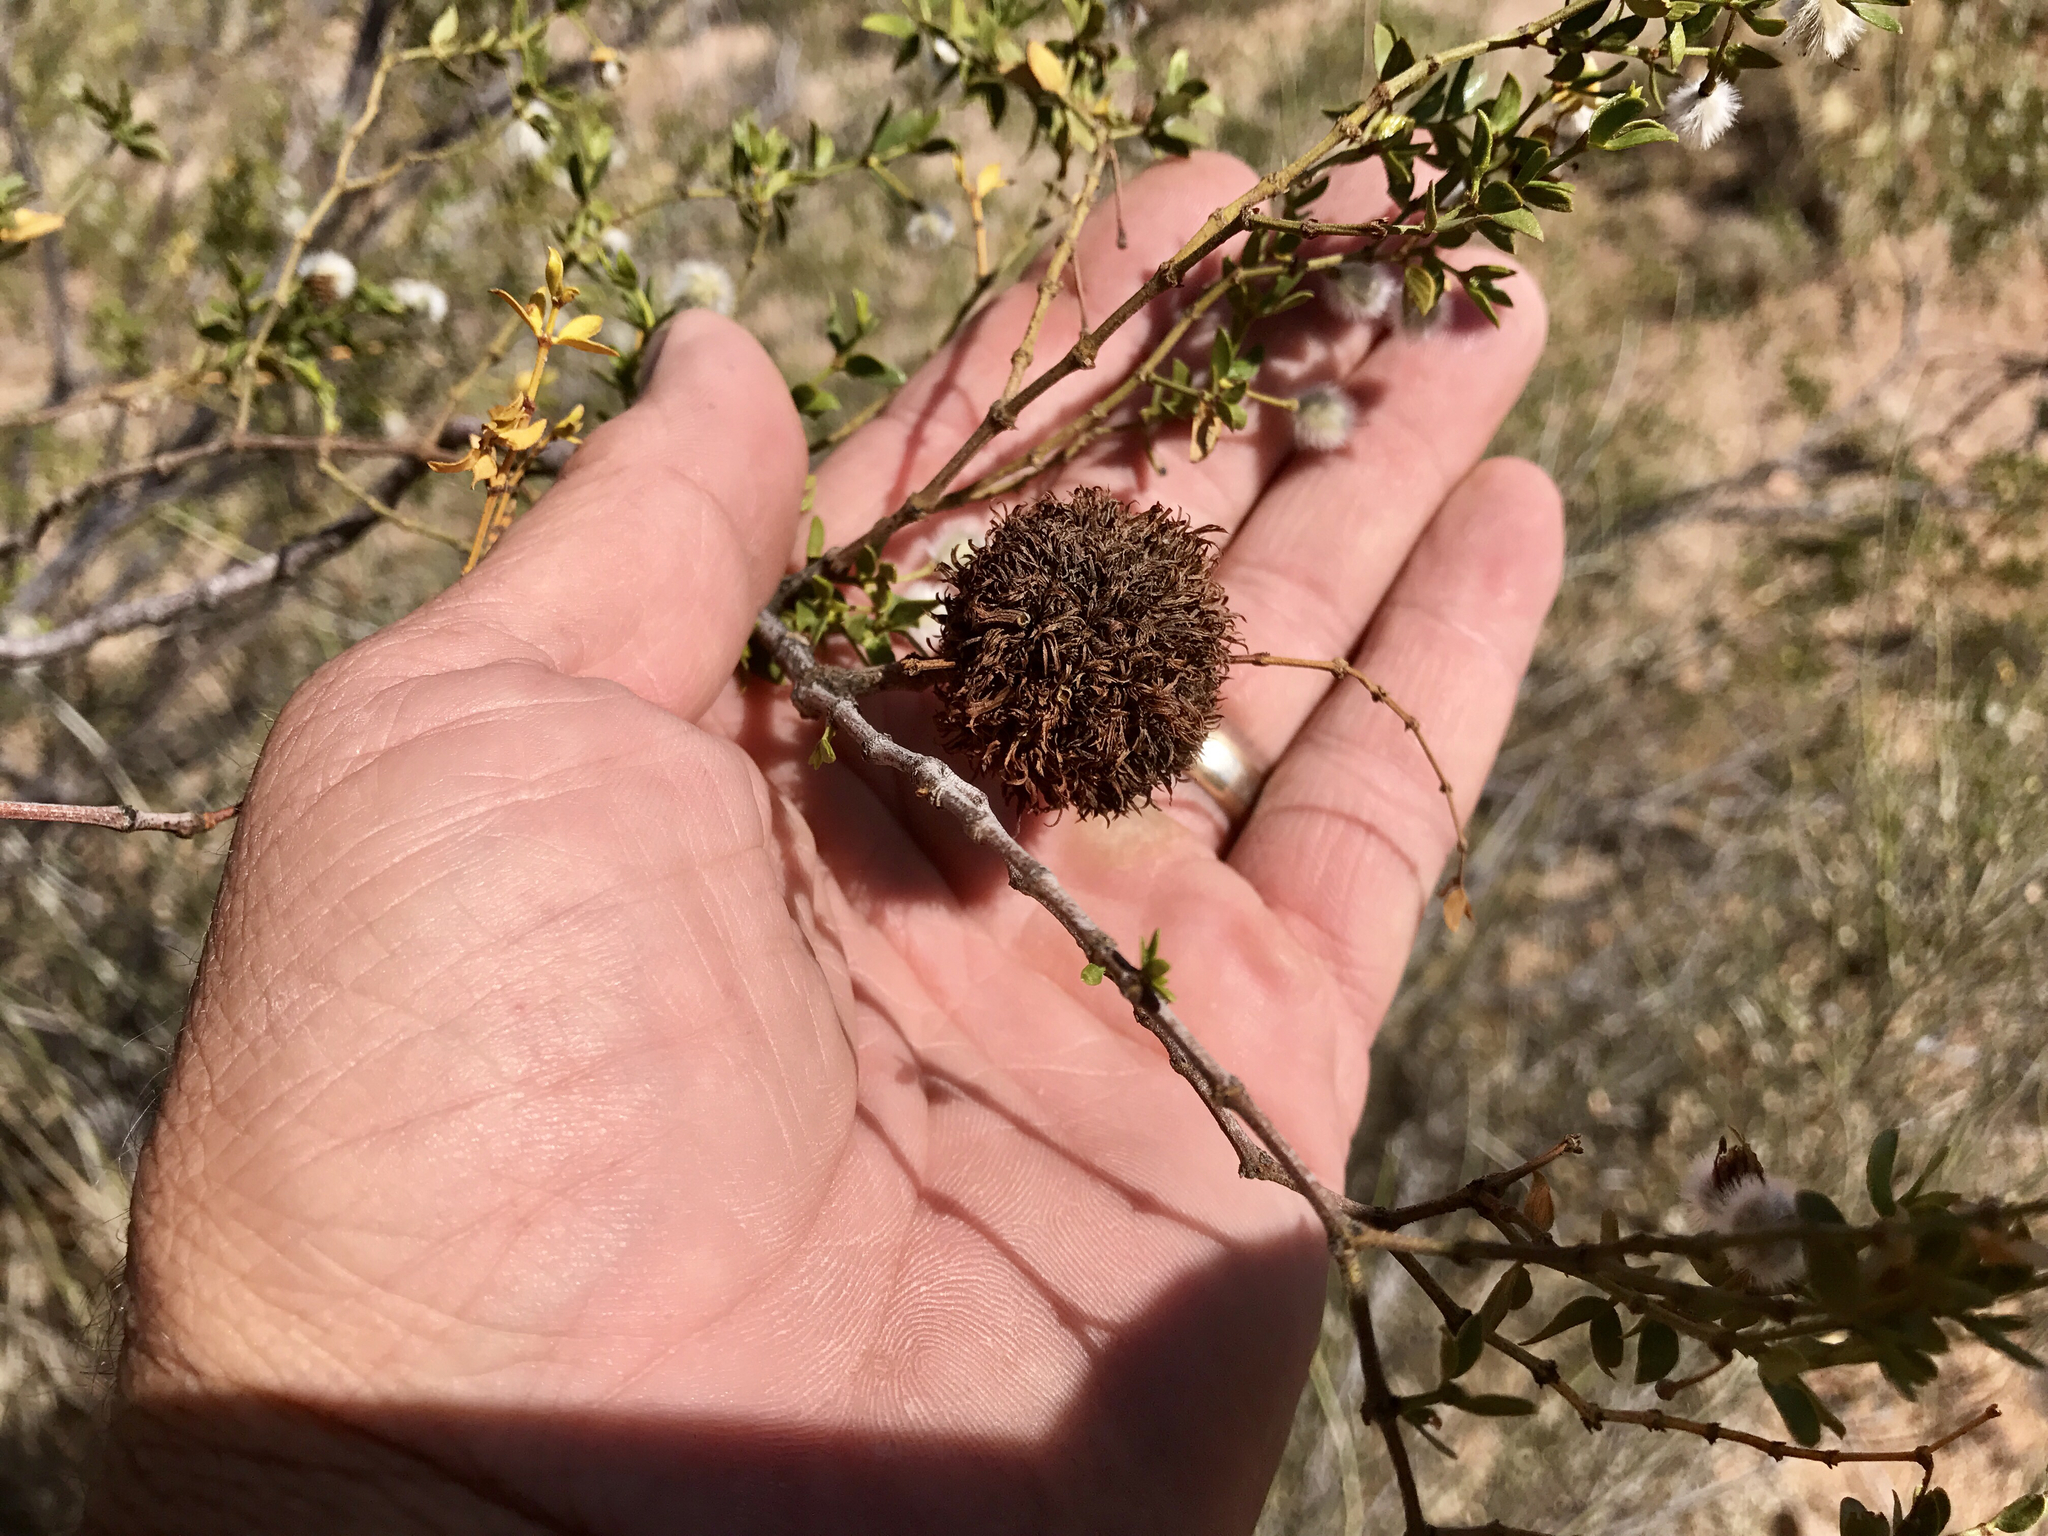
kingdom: Animalia
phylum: Arthropoda
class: Insecta
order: Diptera
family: Cecidomyiidae
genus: Asphondylia
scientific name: Asphondylia auripila
